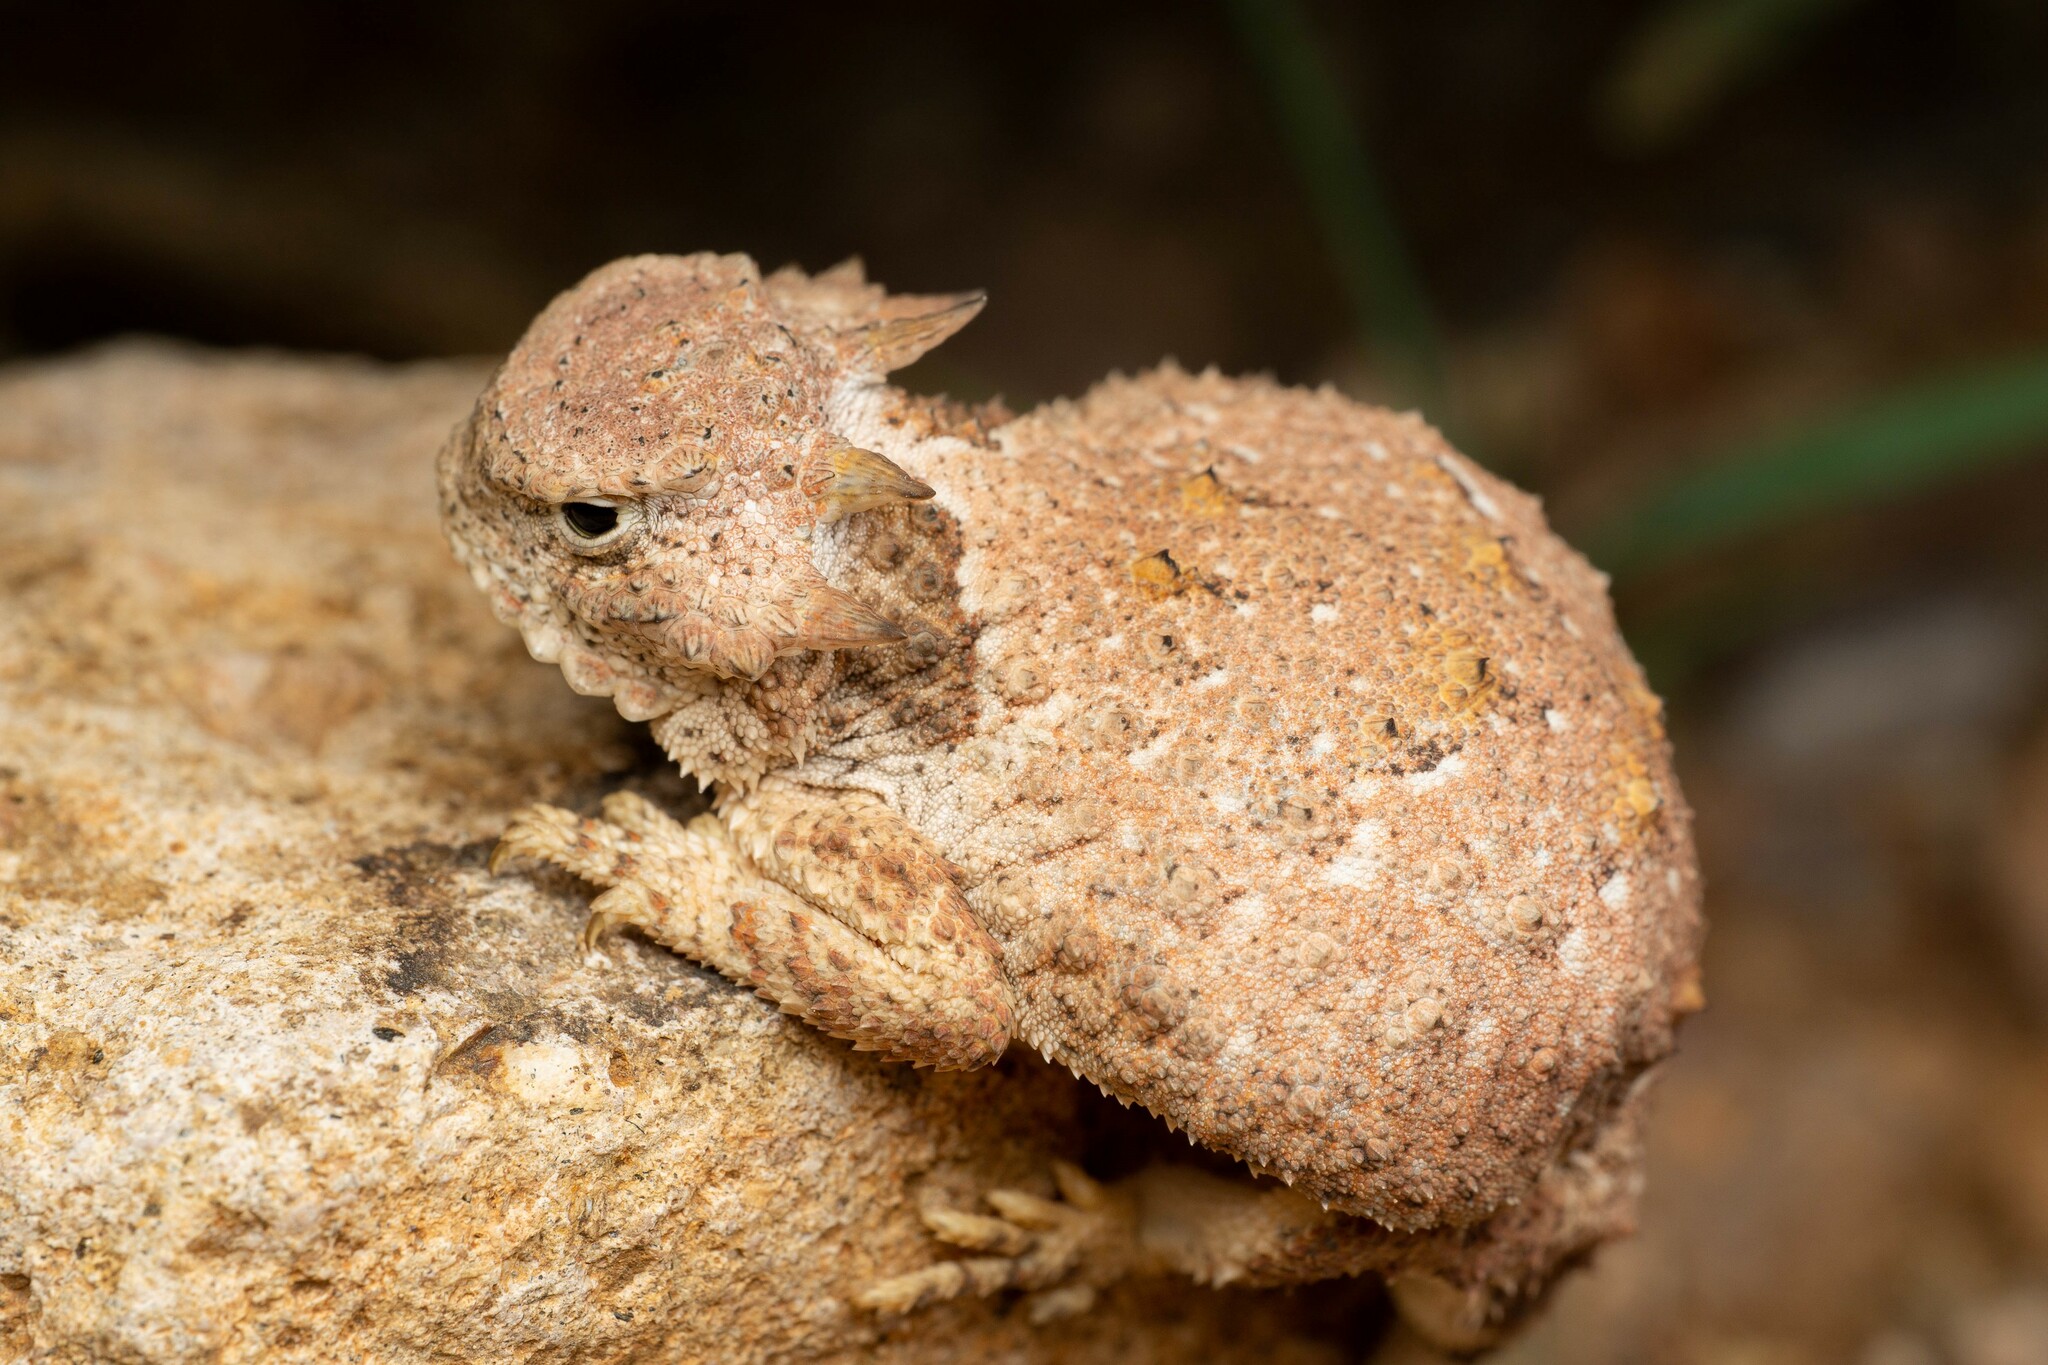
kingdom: Animalia
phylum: Chordata
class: Squamata
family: Phrynosomatidae
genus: Phrynosoma
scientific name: Phrynosoma modestum
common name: Roundtail horned lizard
